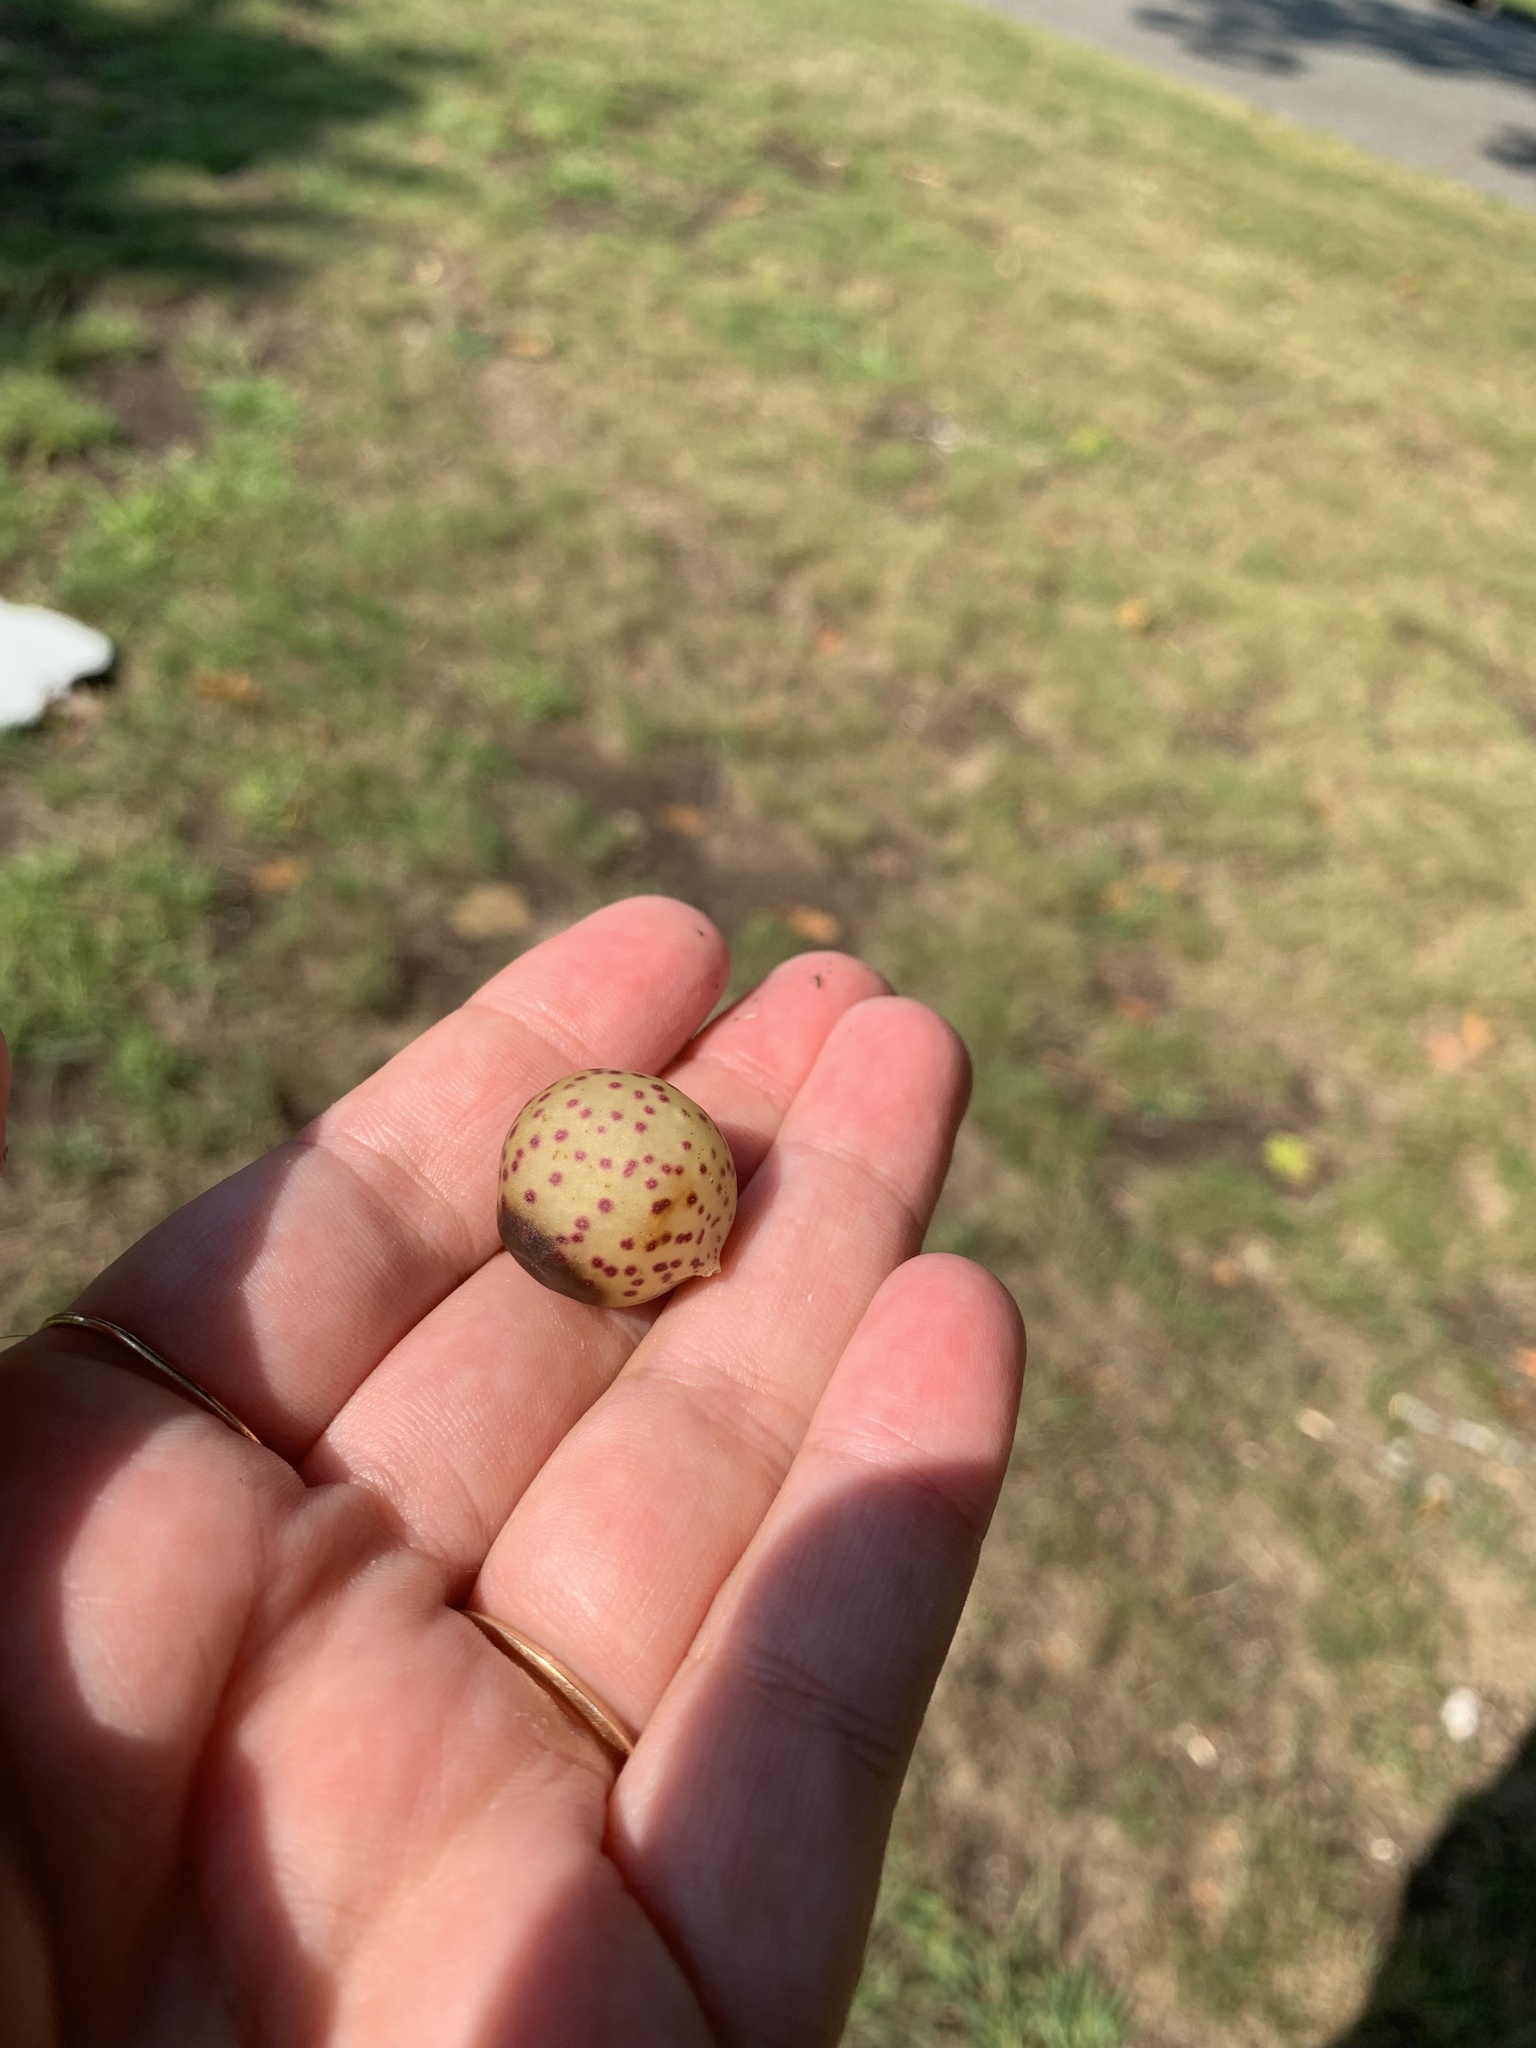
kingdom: Animalia
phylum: Arthropoda
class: Insecta
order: Hymenoptera
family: Cynipidae
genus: Amphibolips
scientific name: Amphibolips
